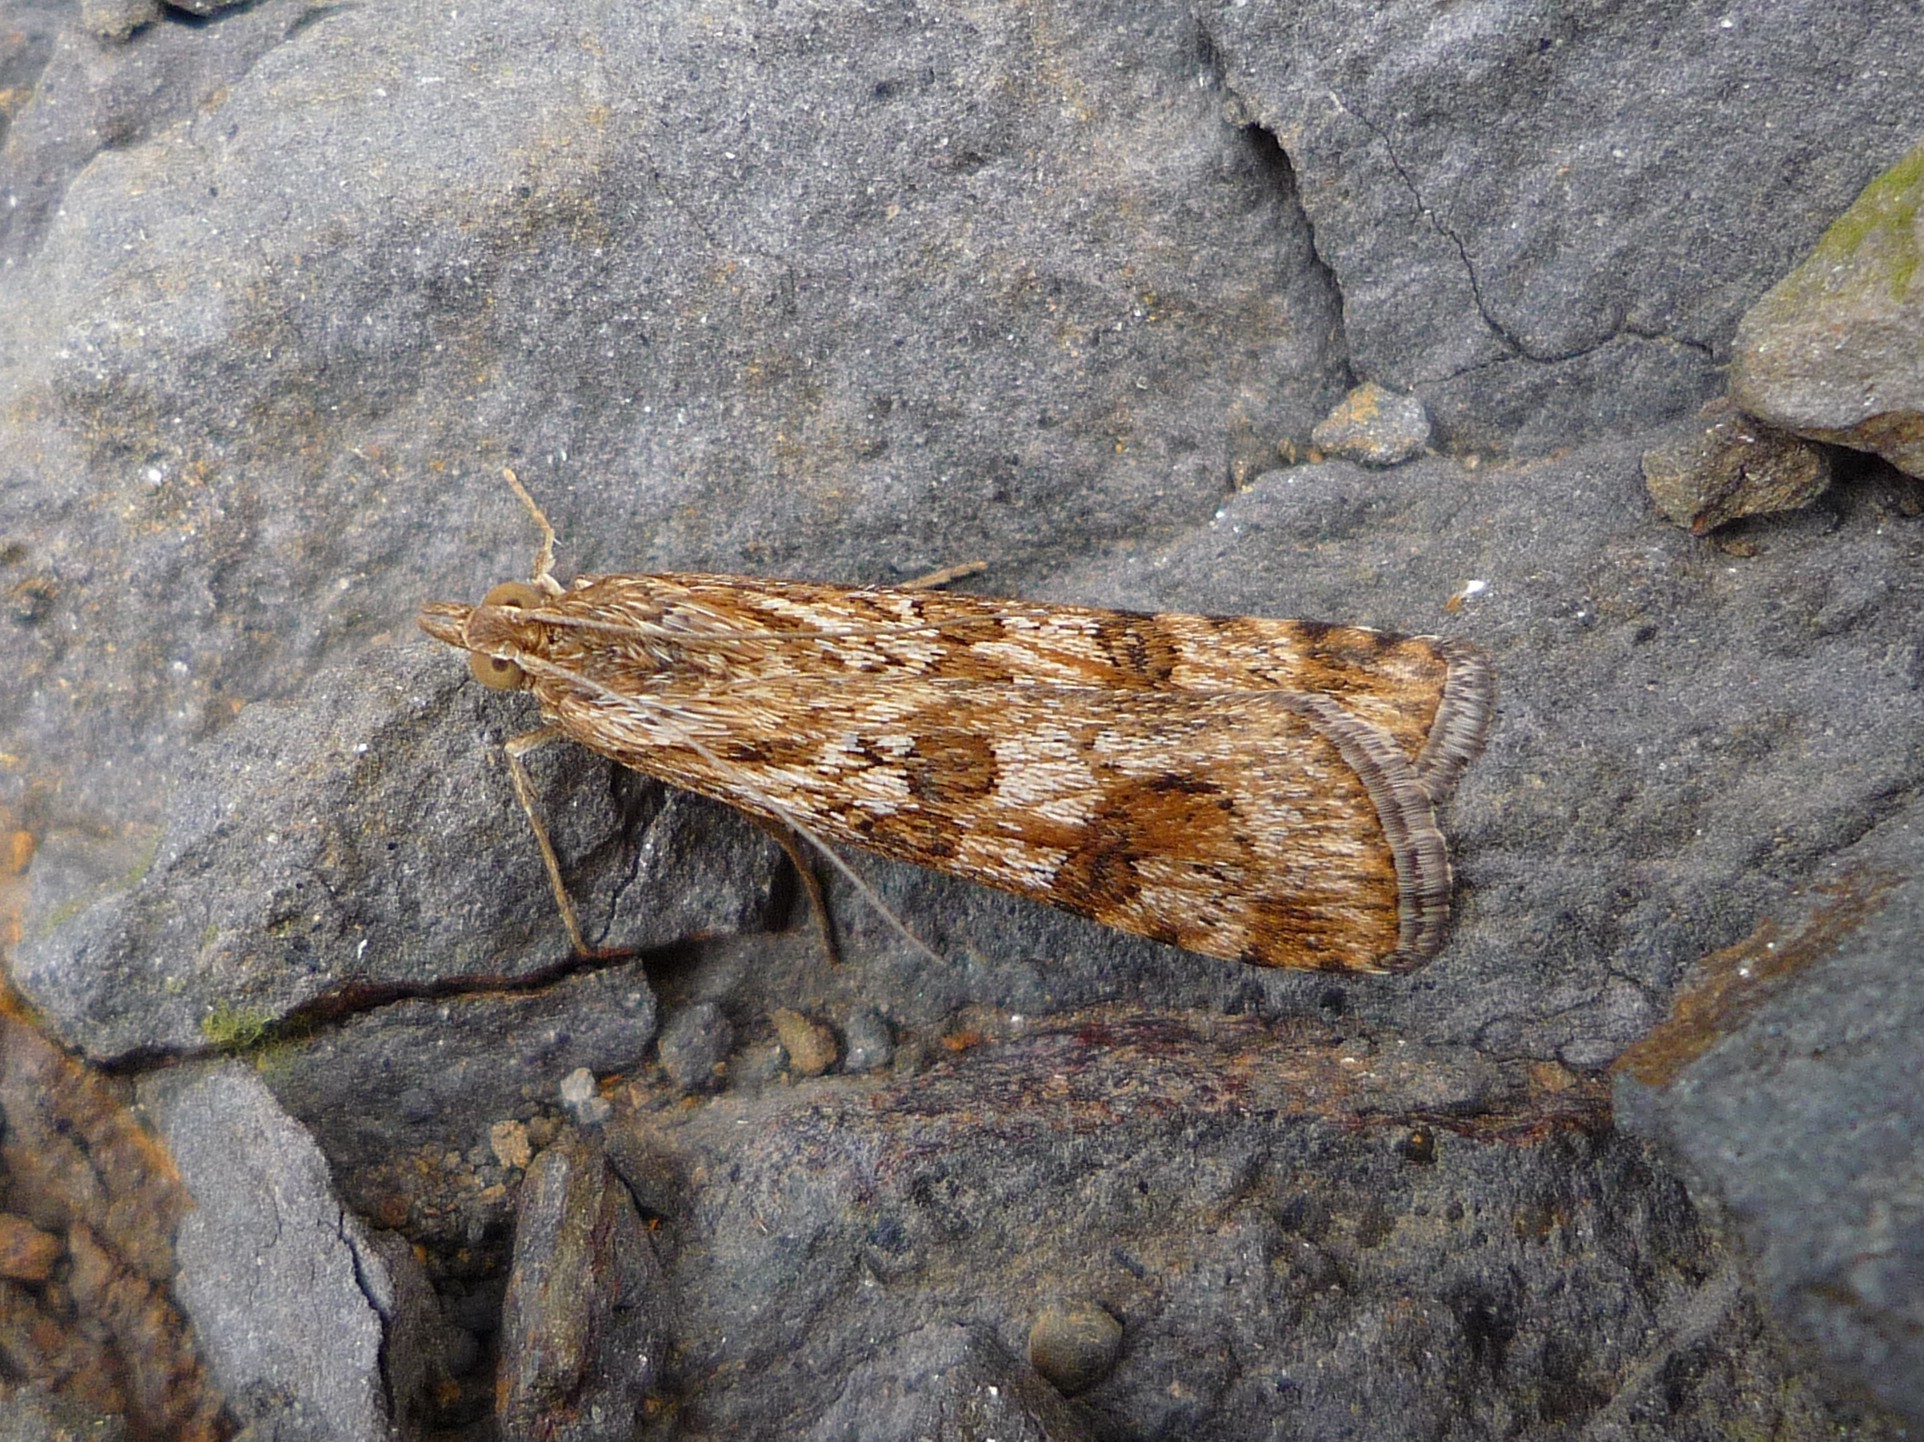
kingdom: Animalia
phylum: Arthropoda
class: Insecta
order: Lepidoptera
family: Crambidae
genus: Nomophila
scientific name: Nomophila noctuella
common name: Rush veneer
